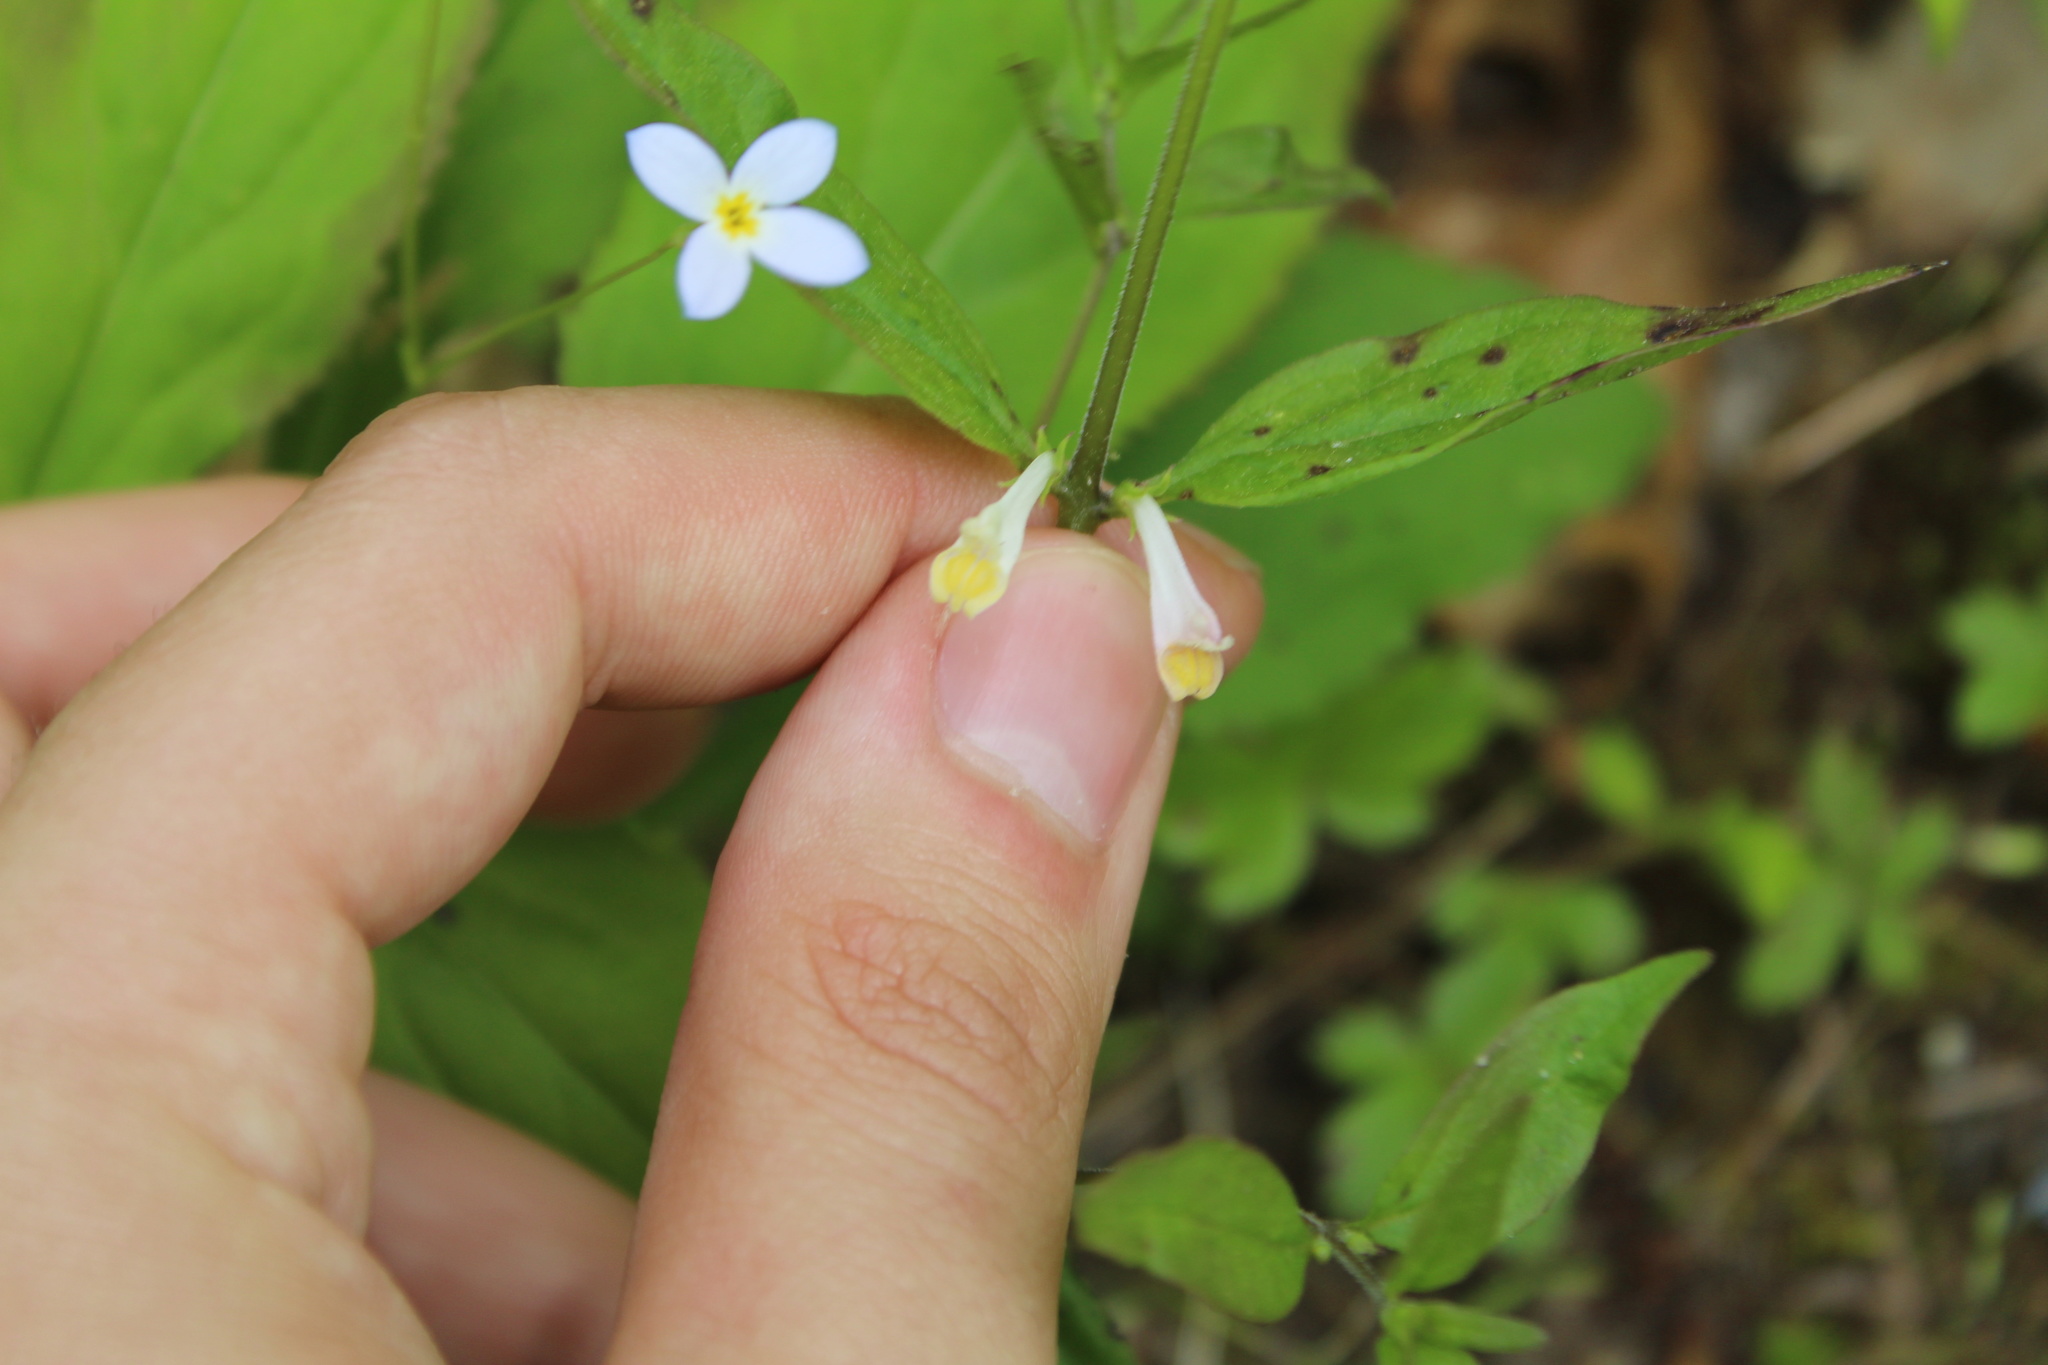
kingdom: Plantae
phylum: Tracheophyta
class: Magnoliopsida
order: Lamiales
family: Orobanchaceae
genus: Melampyrum
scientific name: Melampyrum lineare
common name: American cow-wheat
